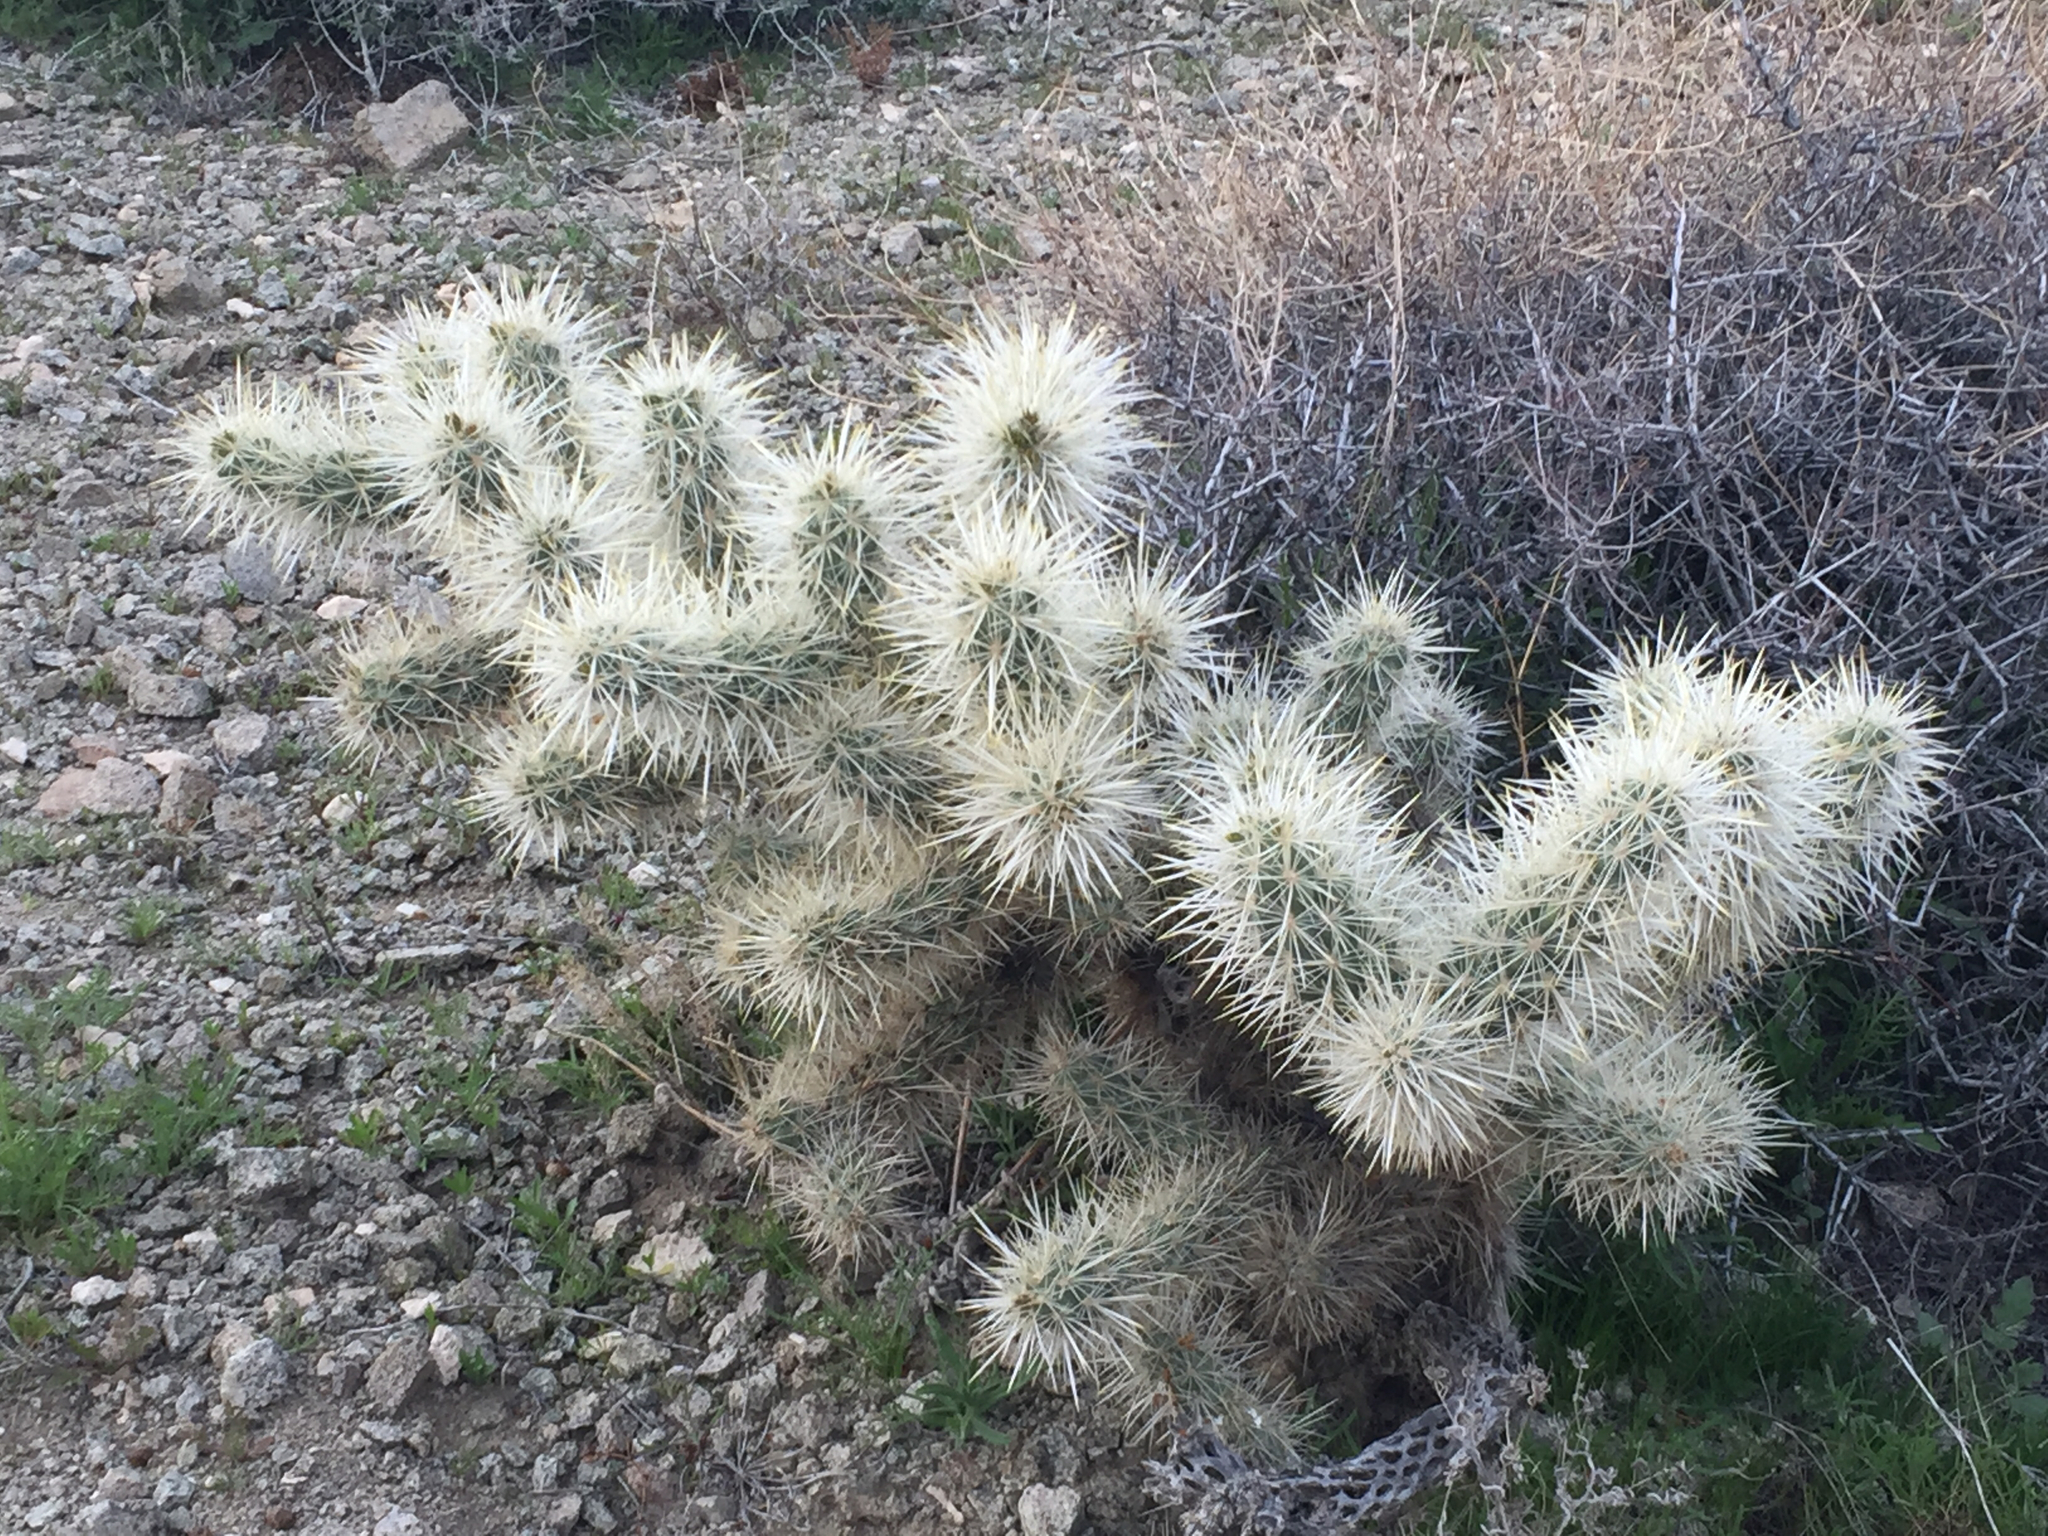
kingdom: Plantae
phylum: Tracheophyta
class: Magnoliopsida
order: Caryophyllales
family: Cactaceae
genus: Cylindropuntia
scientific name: Cylindropuntia echinocarpa
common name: Ground cholla
